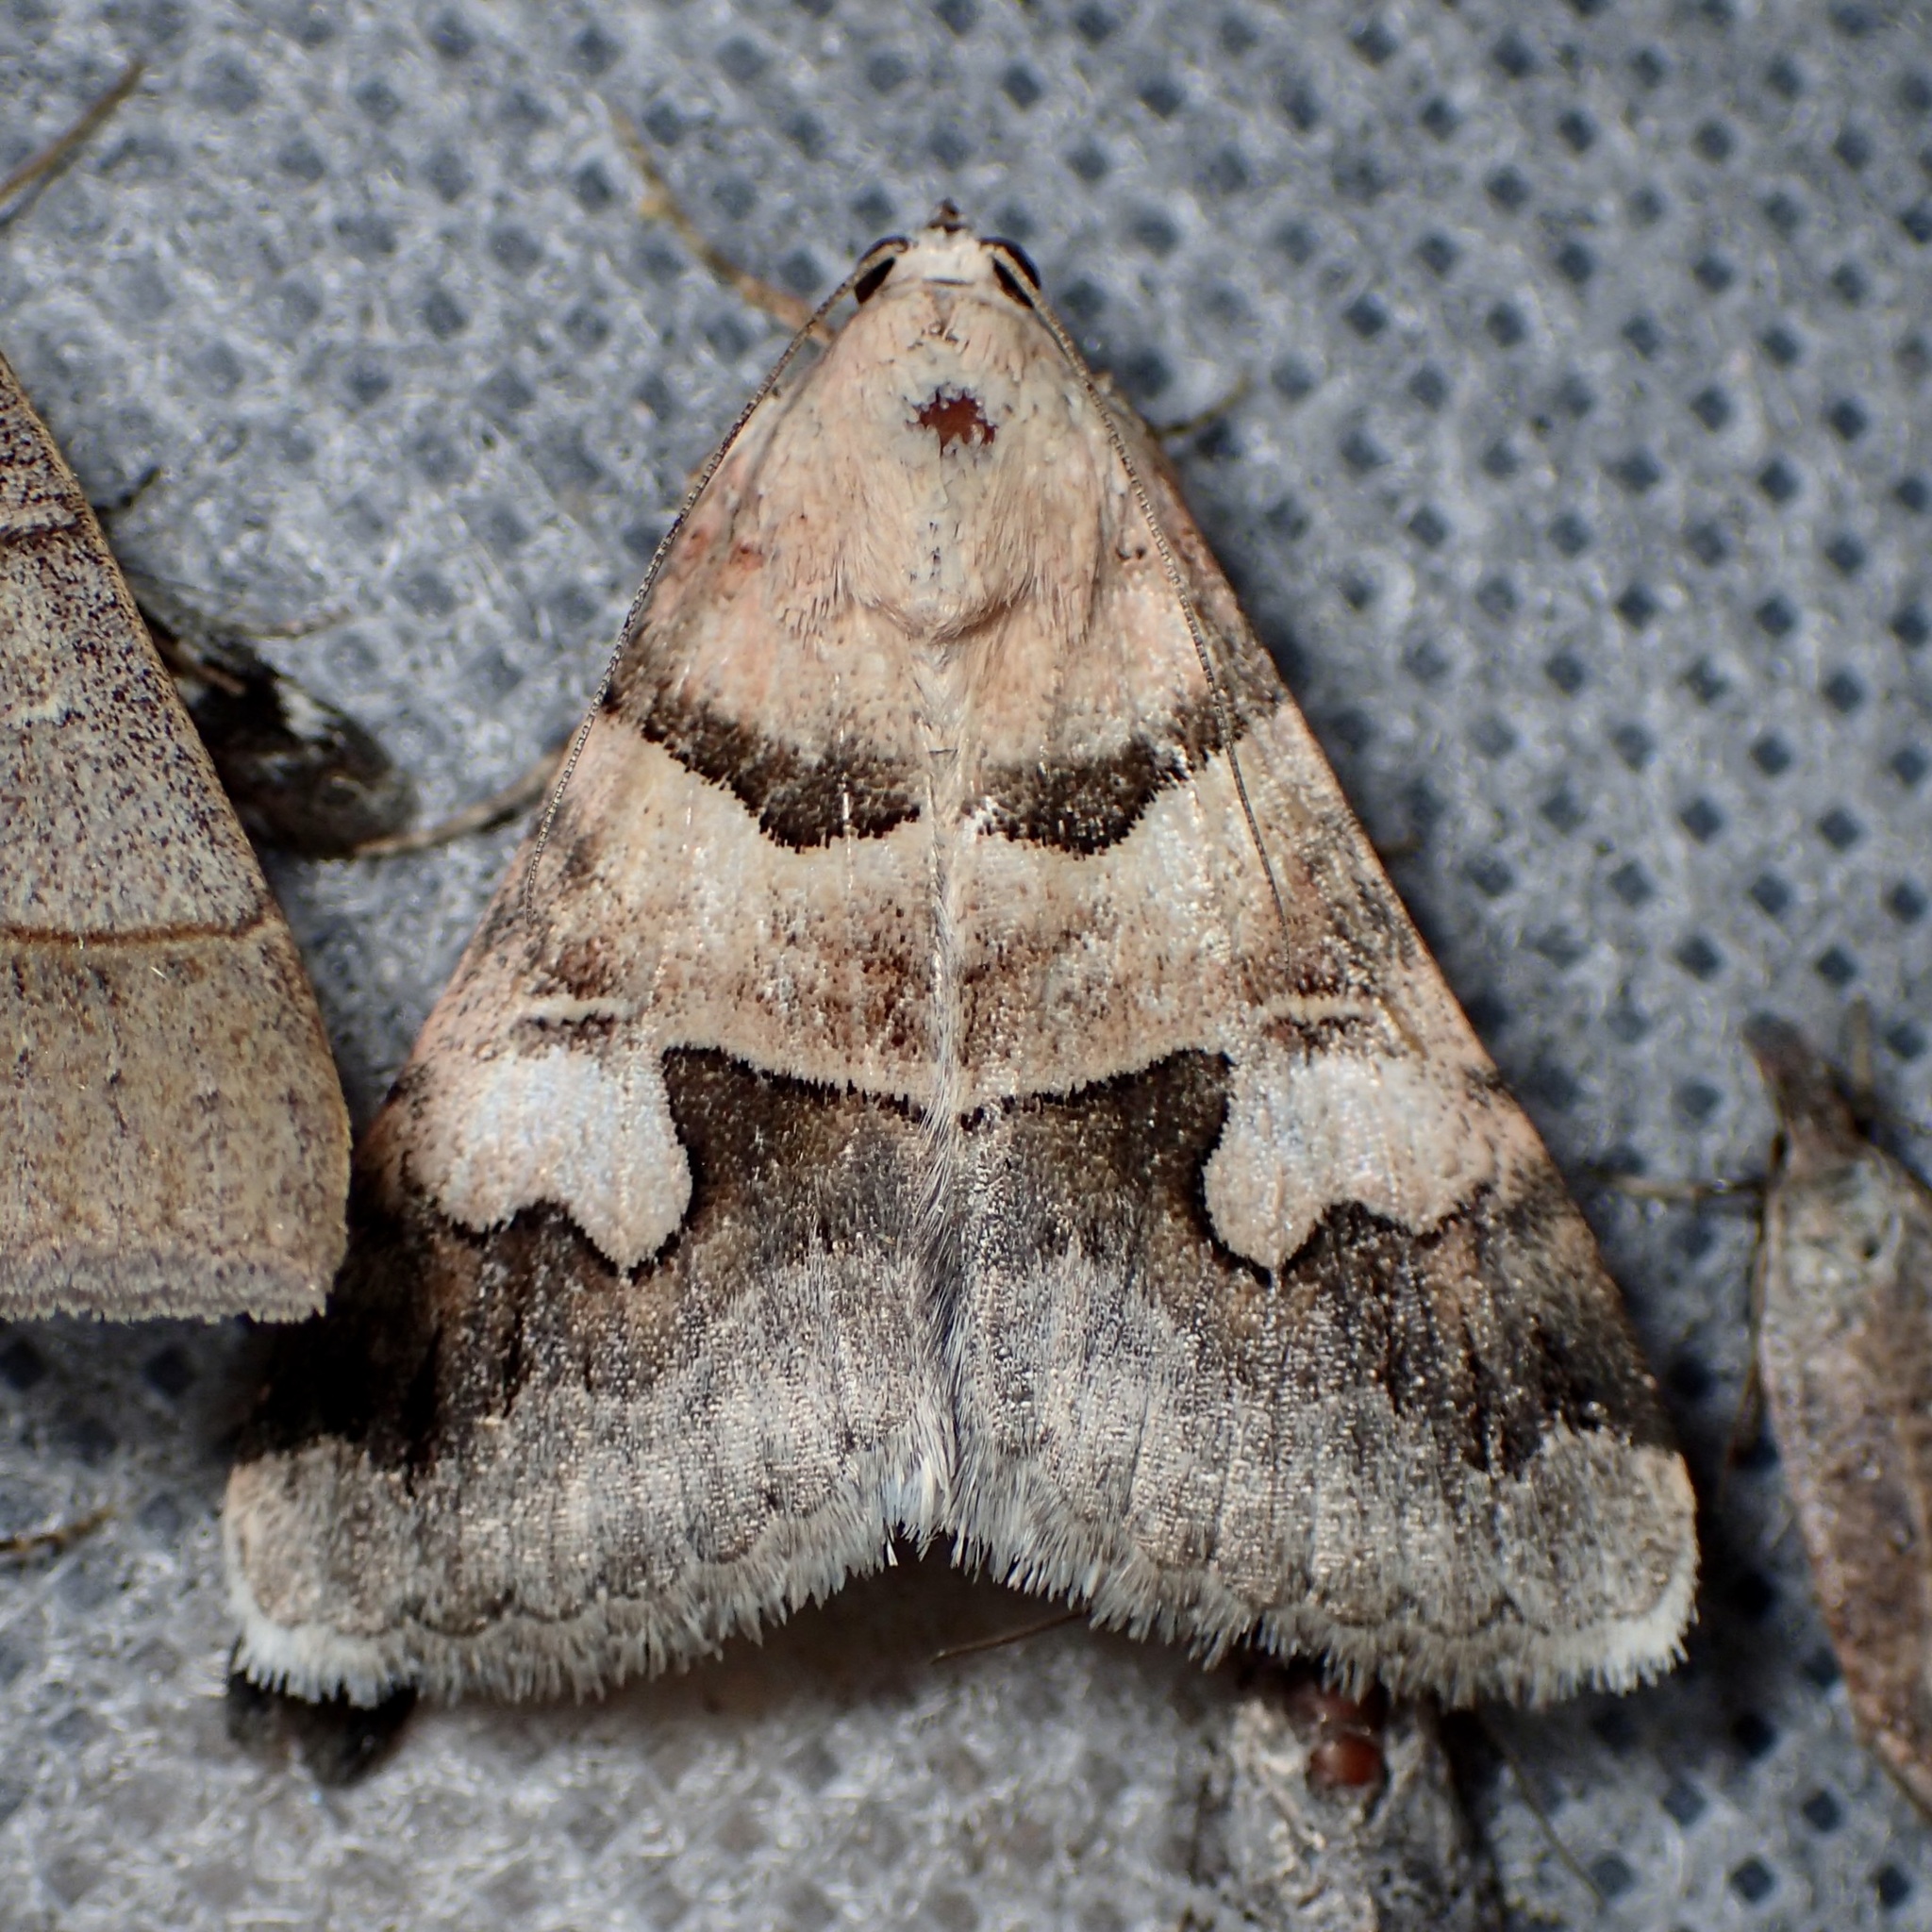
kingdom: Animalia
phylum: Arthropoda
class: Insecta
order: Lepidoptera
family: Erebidae
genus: Drasteria
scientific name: Drasteria pallescens
